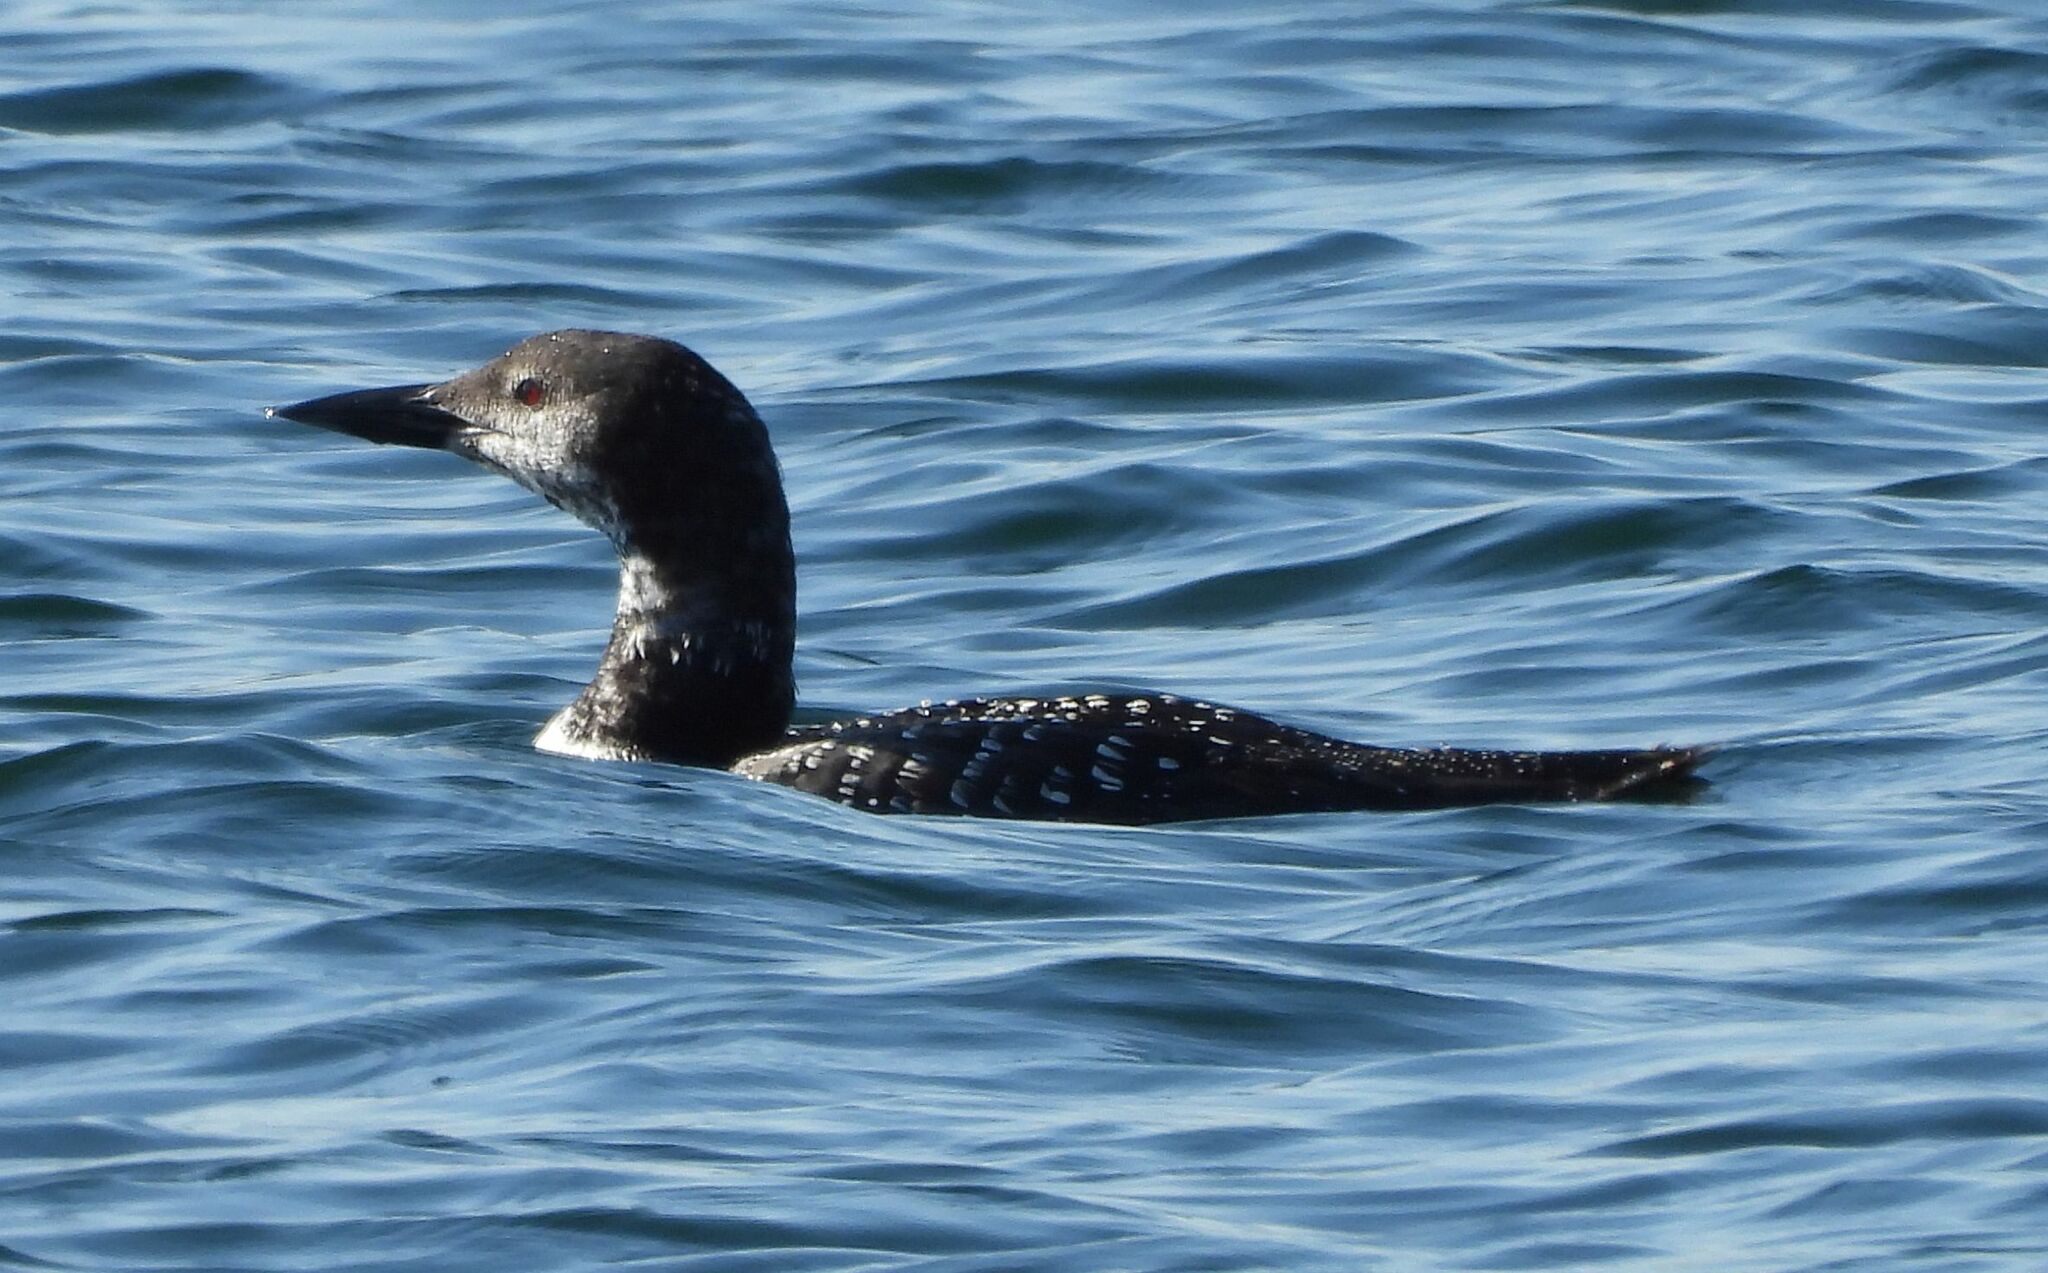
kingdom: Animalia
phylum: Chordata
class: Aves
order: Gaviiformes
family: Gaviidae
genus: Gavia
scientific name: Gavia immer
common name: Common loon
